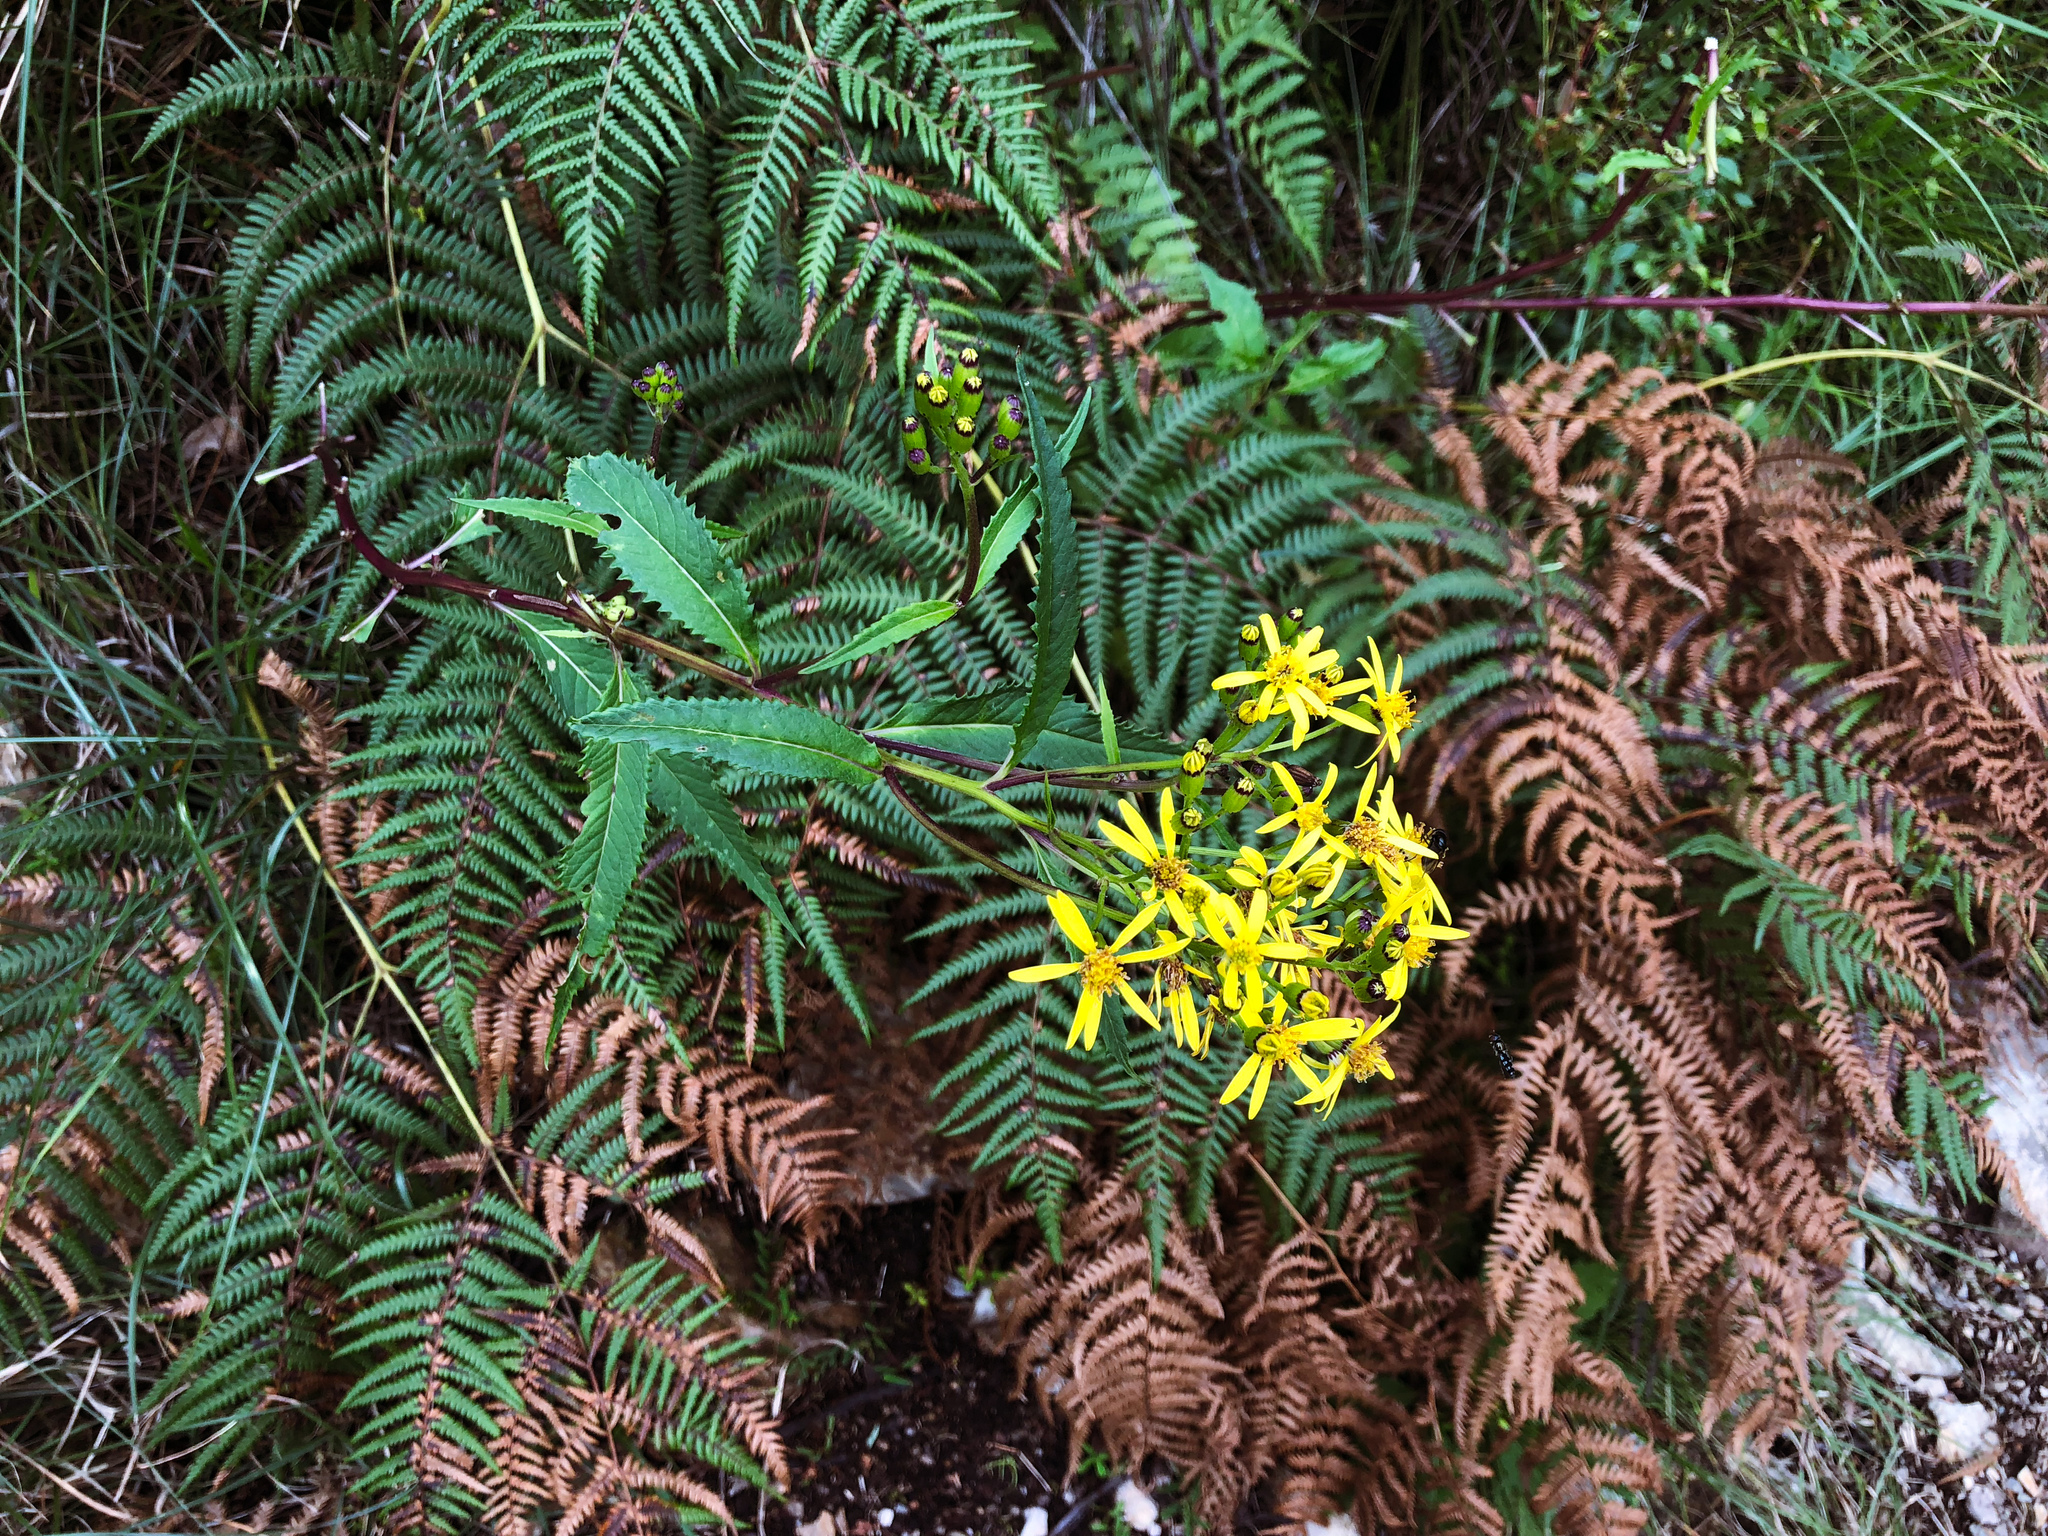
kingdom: Plantae
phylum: Tracheophyta
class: Magnoliopsida
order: Asterales
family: Asteraceae
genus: Jacobaea
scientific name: Jacobaea morrisonensis
